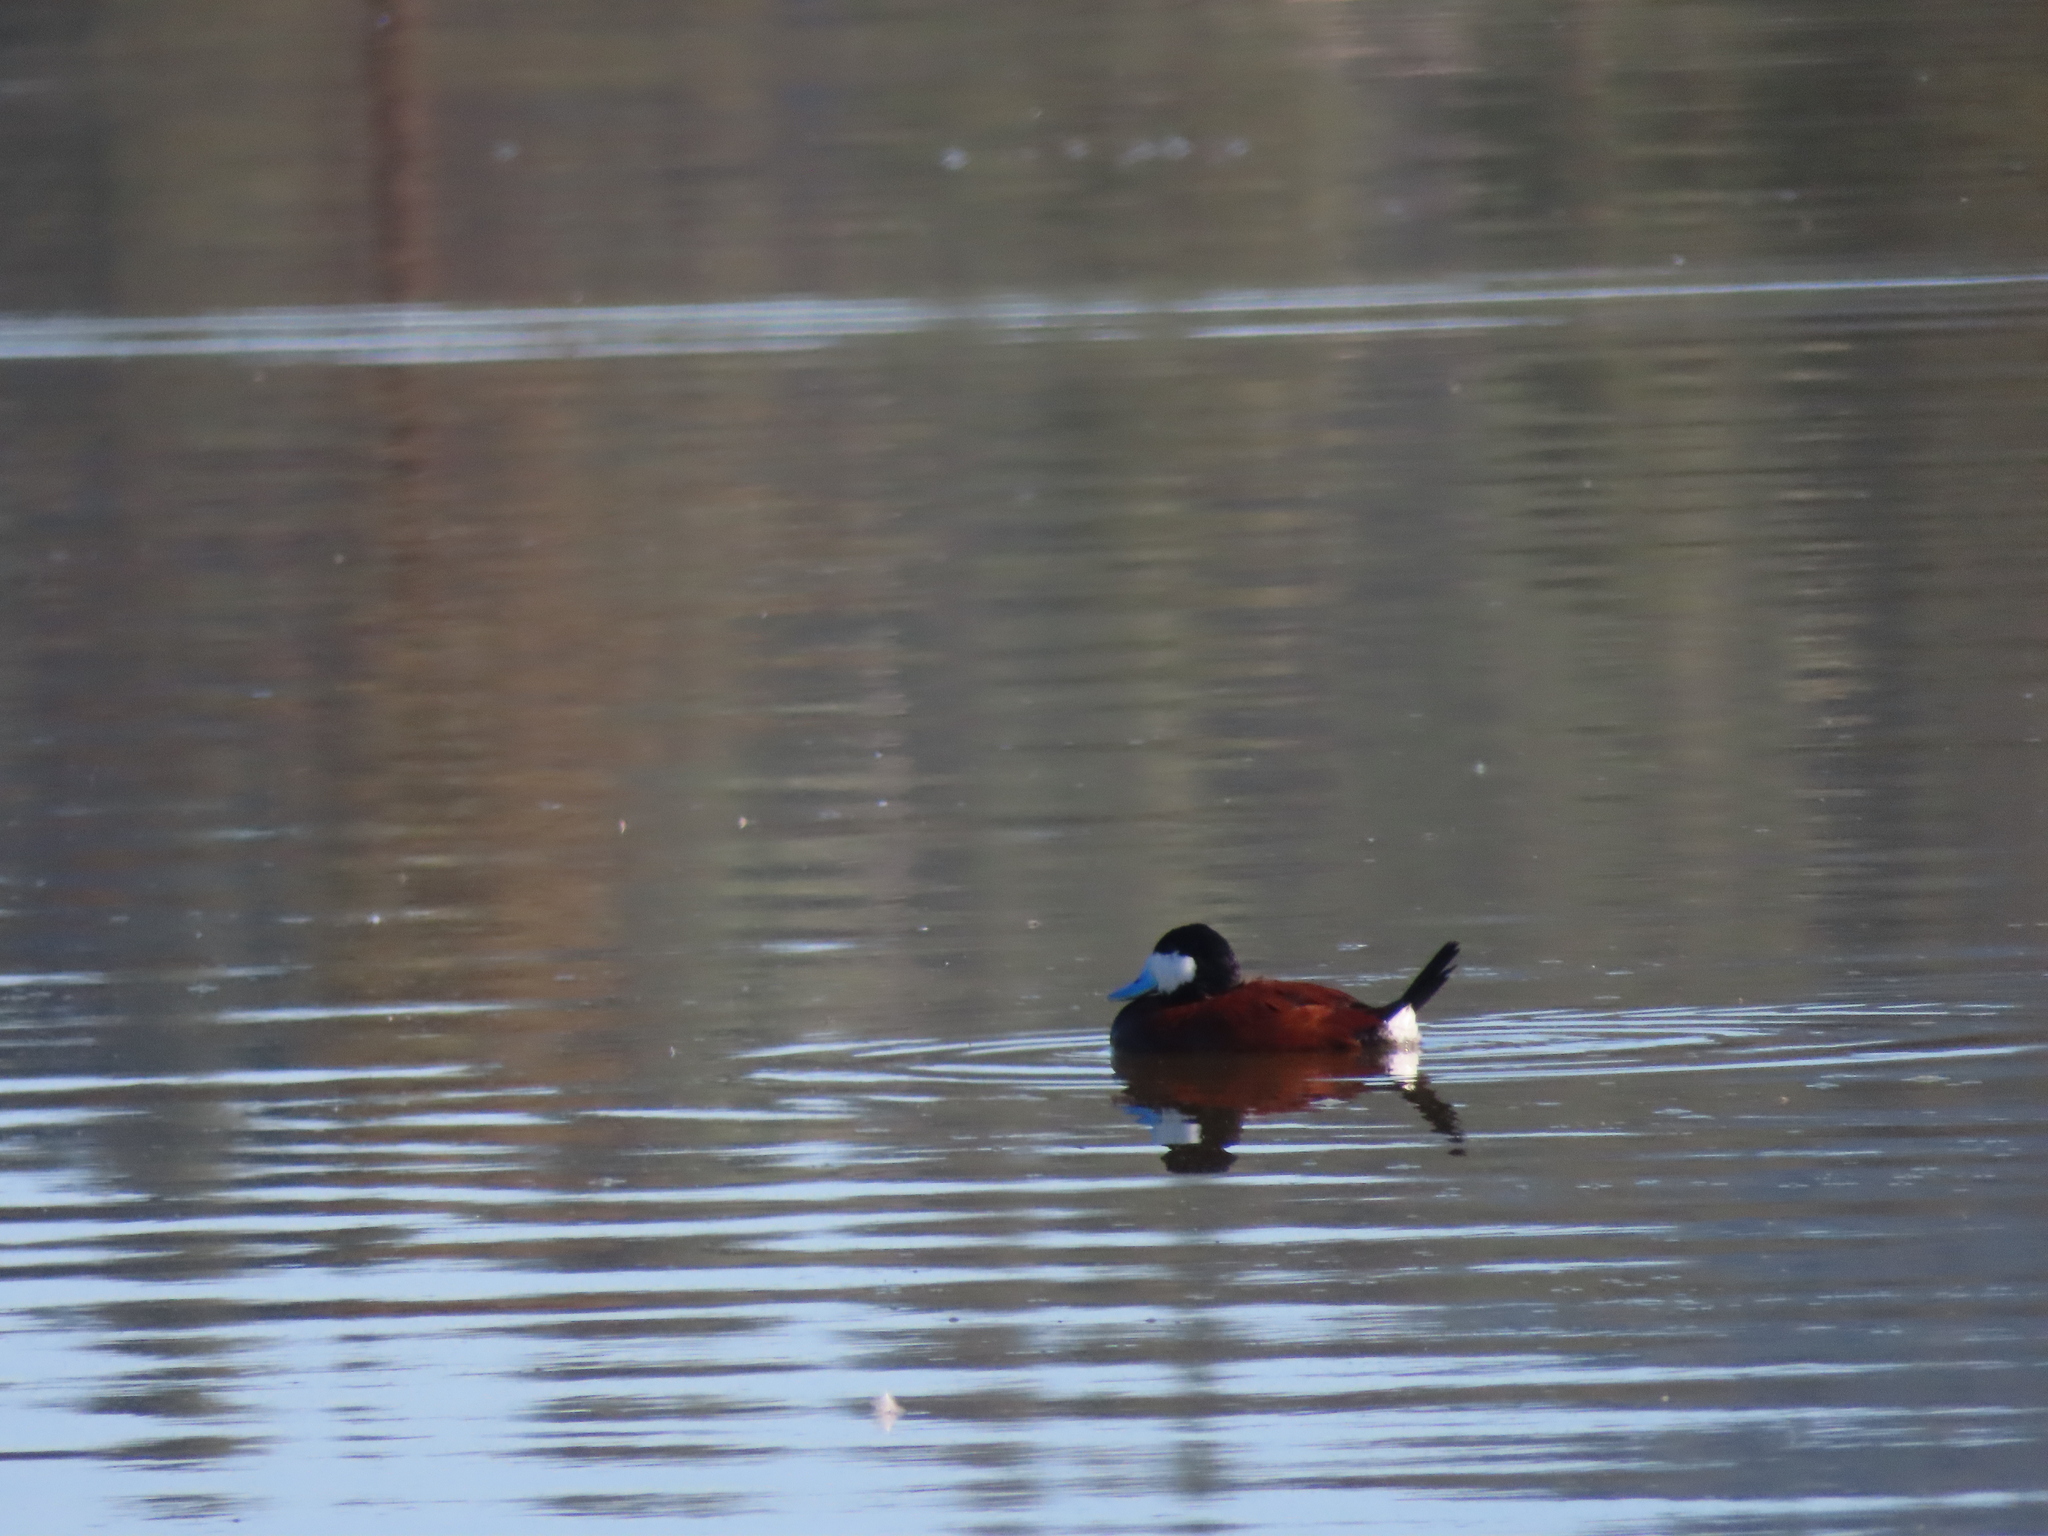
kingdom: Animalia
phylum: Chordata
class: Aves
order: Anseriformes
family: Anatidae
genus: Oxyura
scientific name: Oxyura jamaicensis
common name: Ruddy duck
